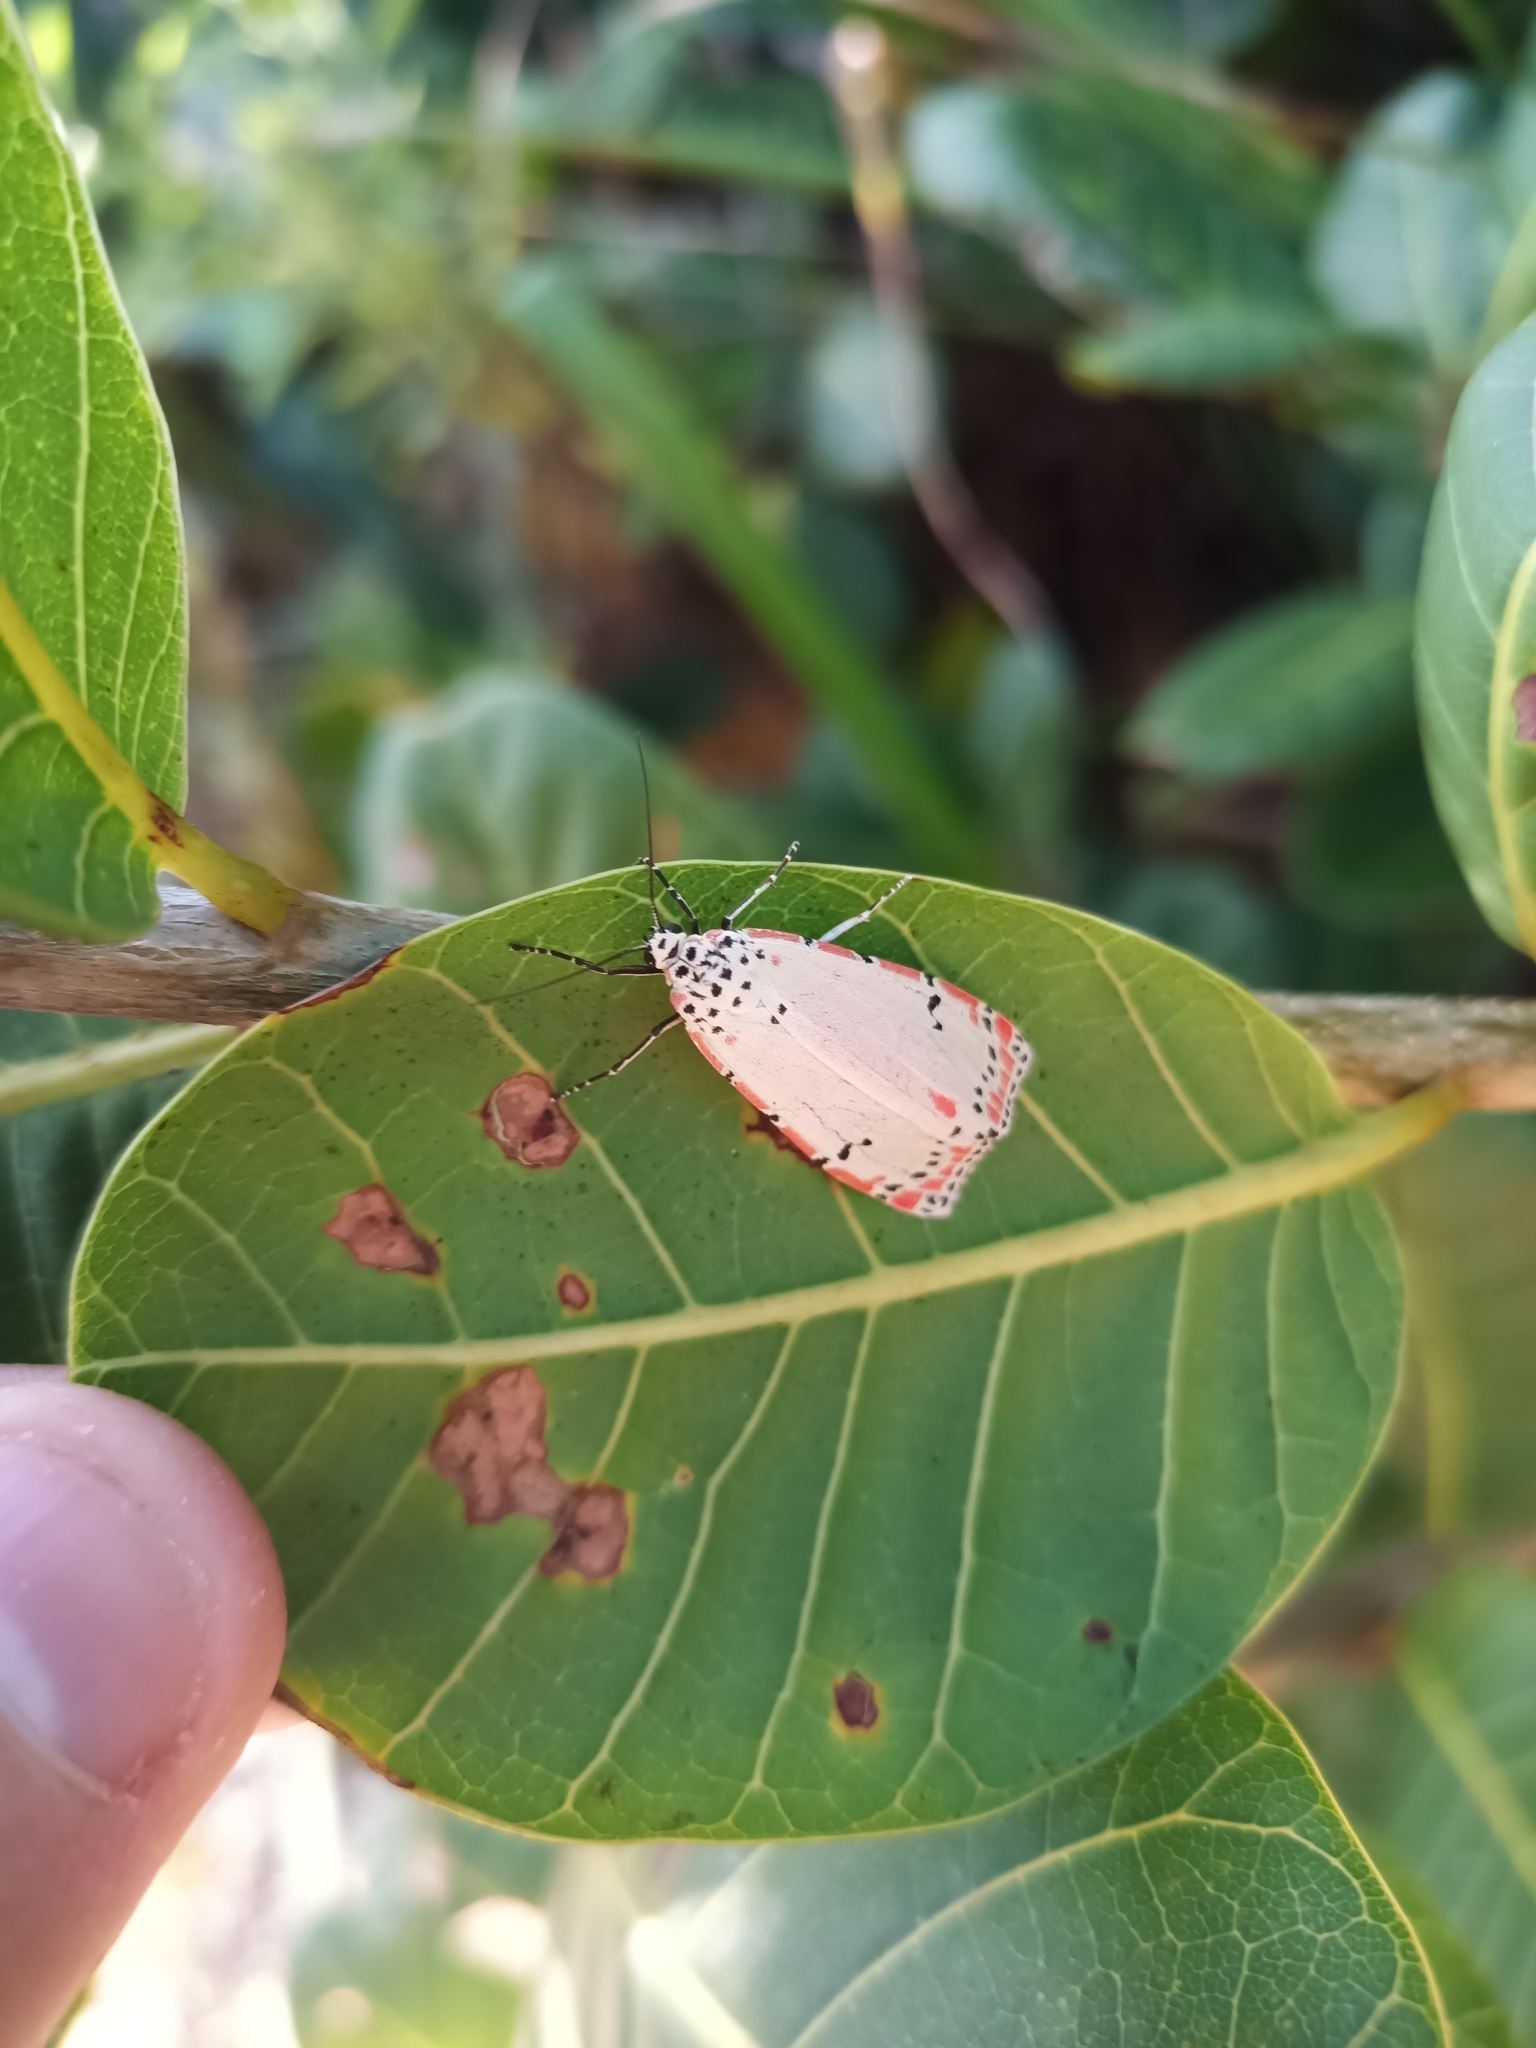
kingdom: Animalia
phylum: Arthropoda
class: Insecta
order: Lepidoptera
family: Erebidae
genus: Utetheisa
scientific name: Utetheisa ornatrix
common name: Beautiful utetheisa
